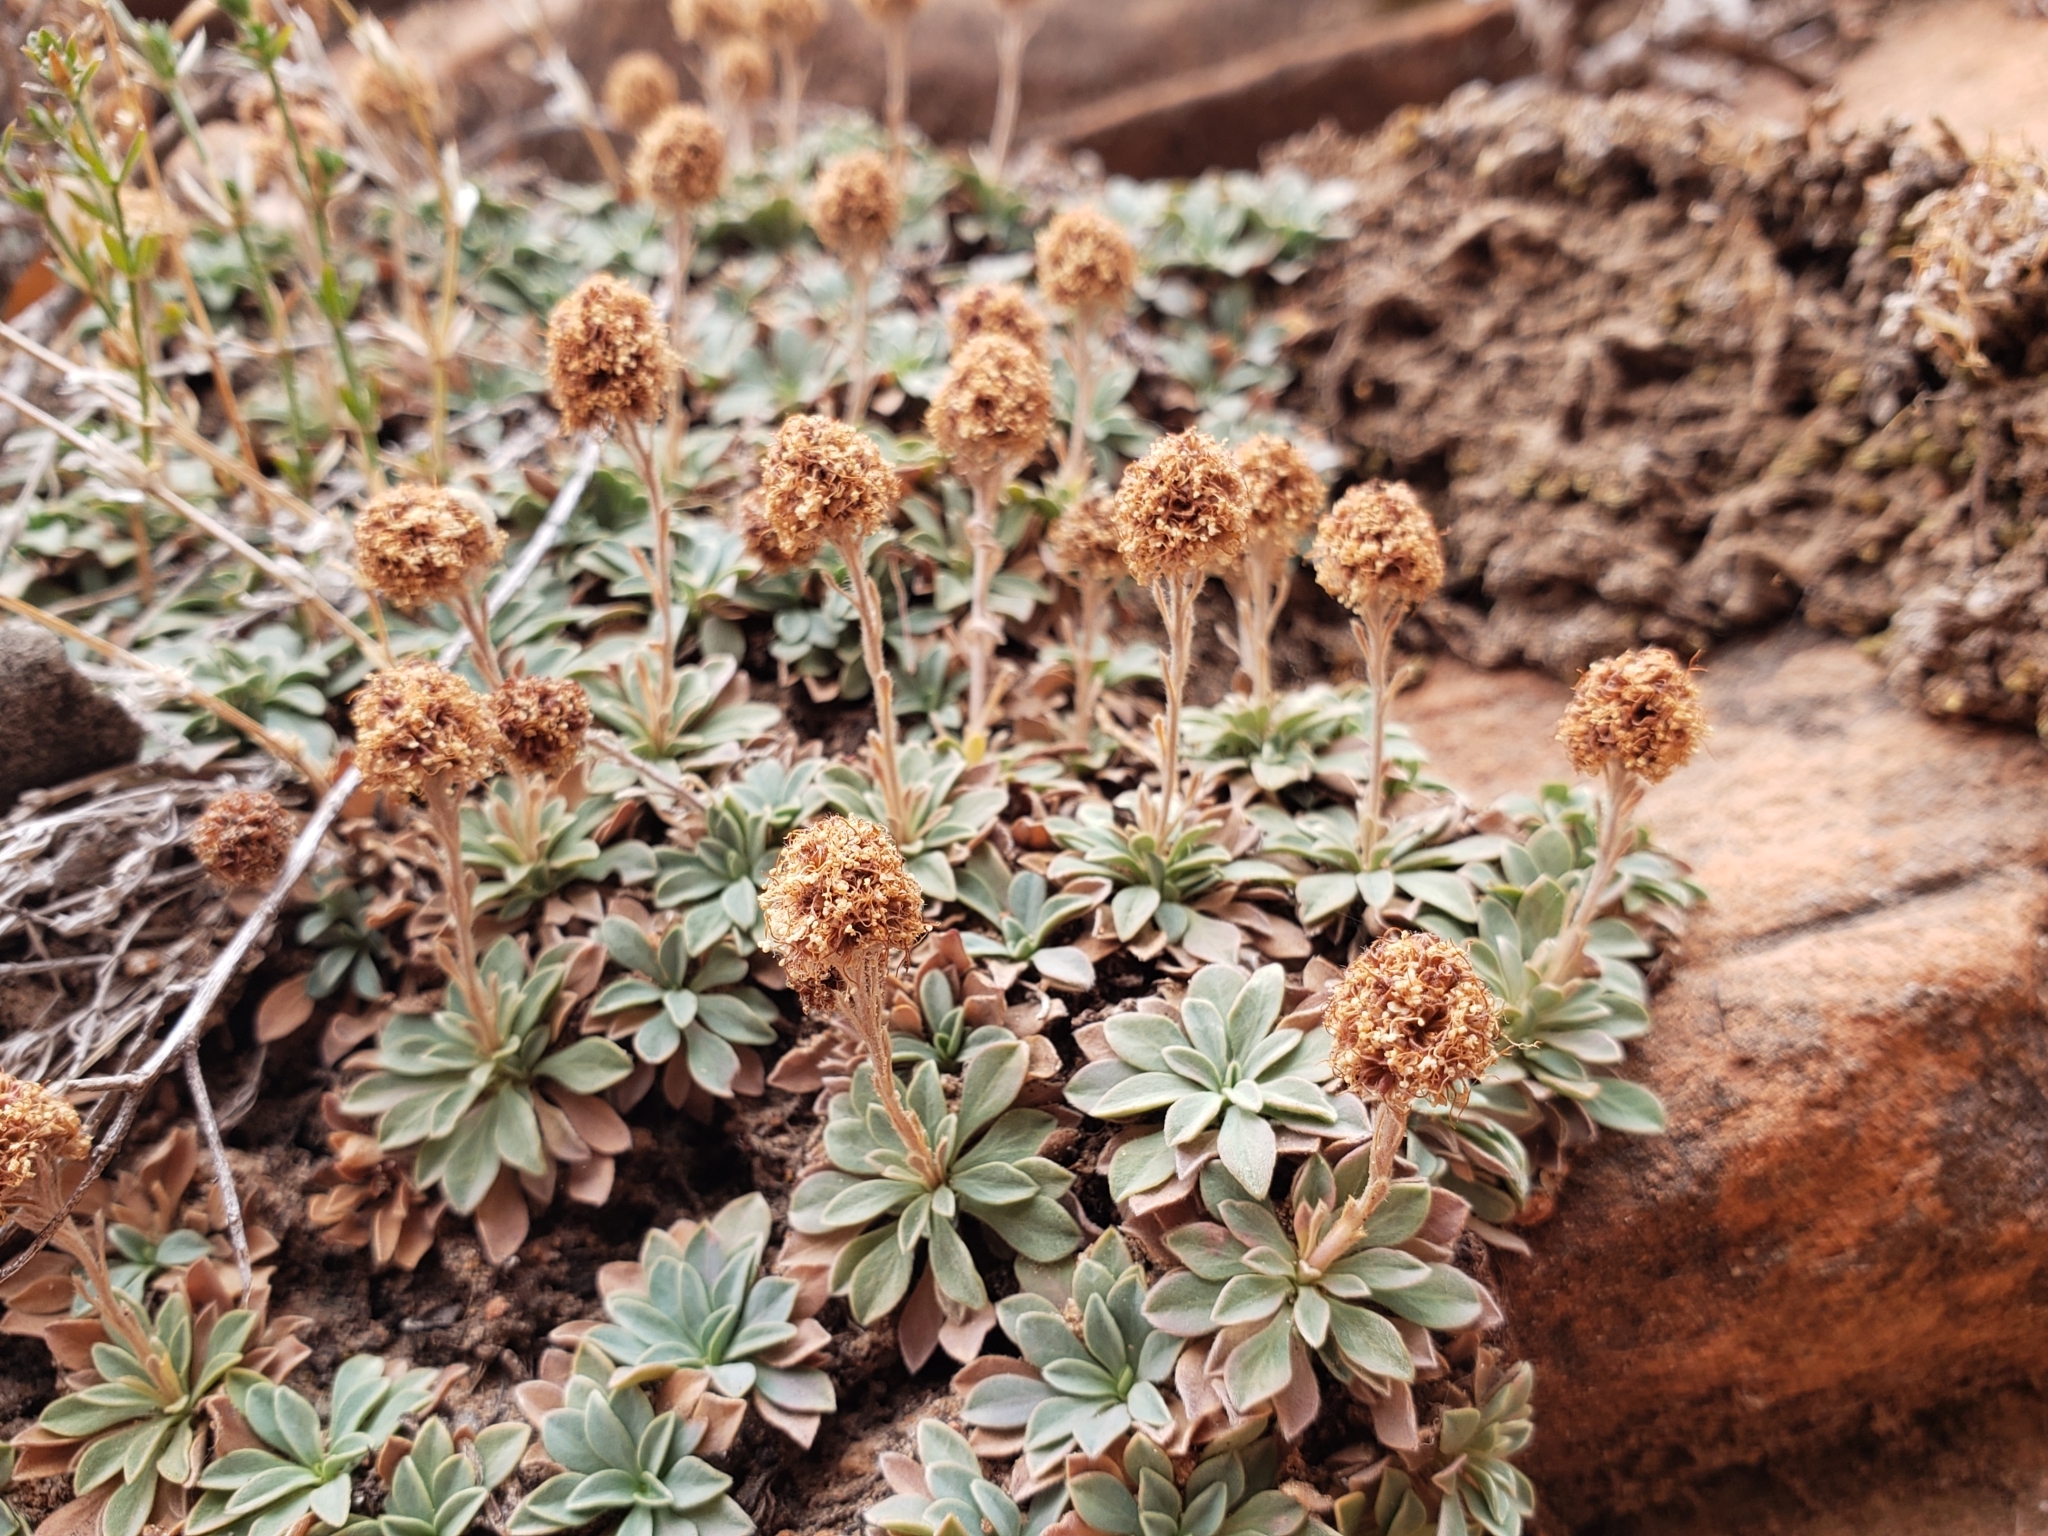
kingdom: Plantae
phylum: Tracheophyta
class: Magnoliopsida
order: Rosales
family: Rosaceae
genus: Petrophytum
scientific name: Petrophytum caespitosum
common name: Mat rockspirea
